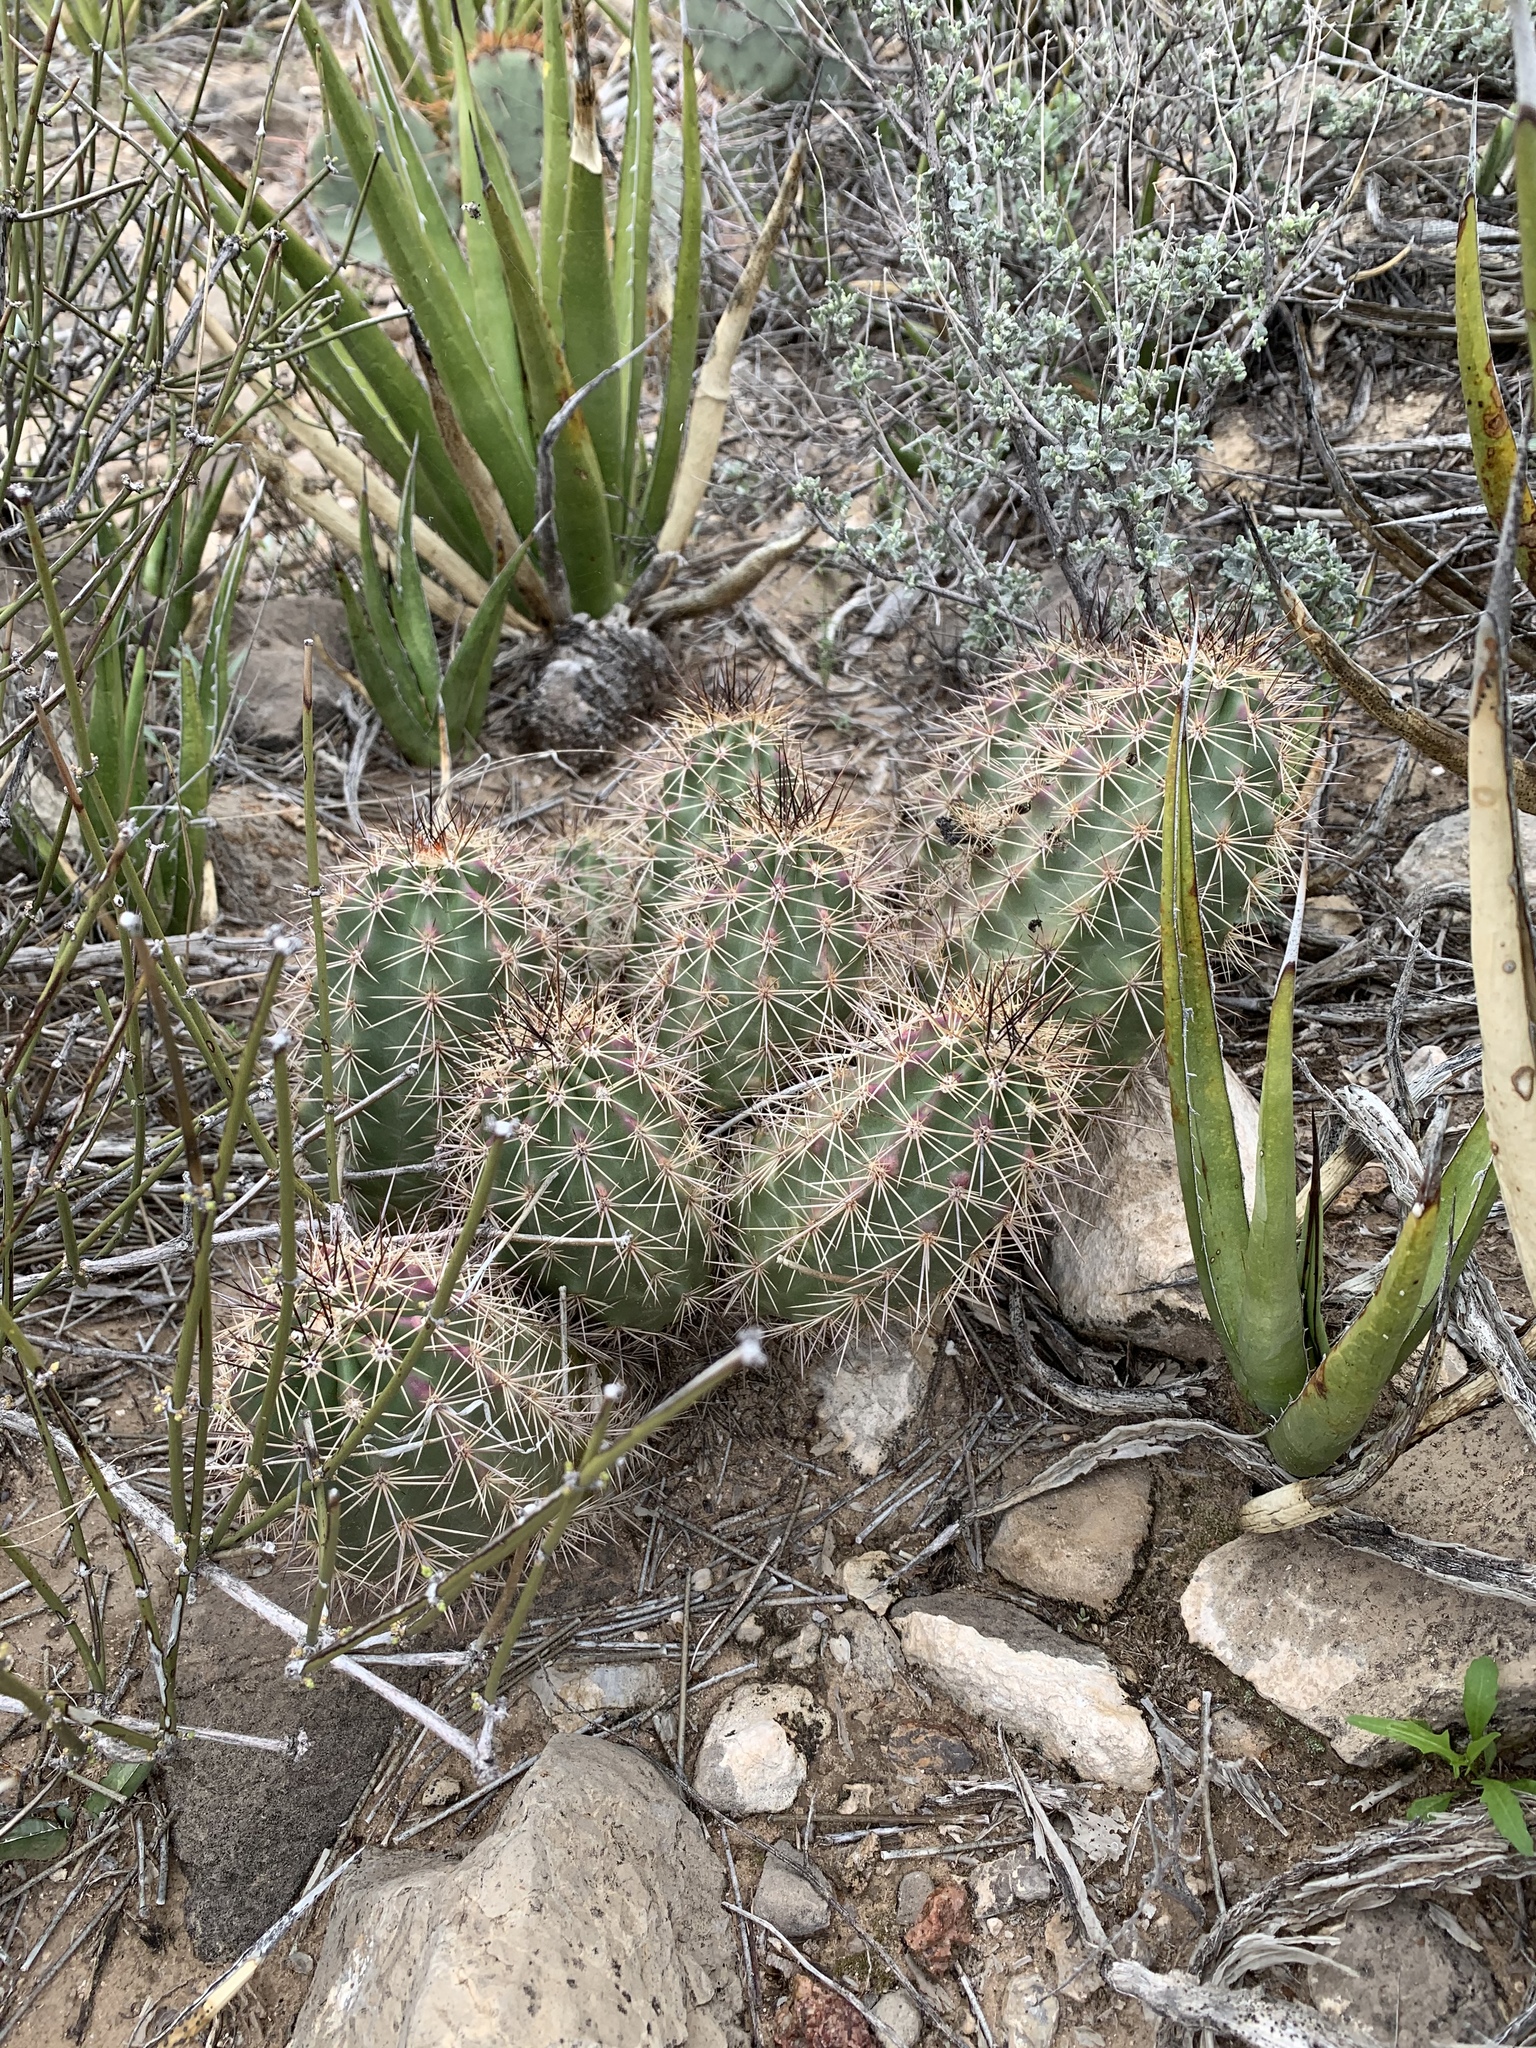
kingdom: Plantae
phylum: Tracheophyta
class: Magnoliopsida
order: Caryophyllales
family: Cactaceae
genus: Echinocereus
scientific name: Echinocereus coccineus
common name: Scarlet hedgehog cactus
